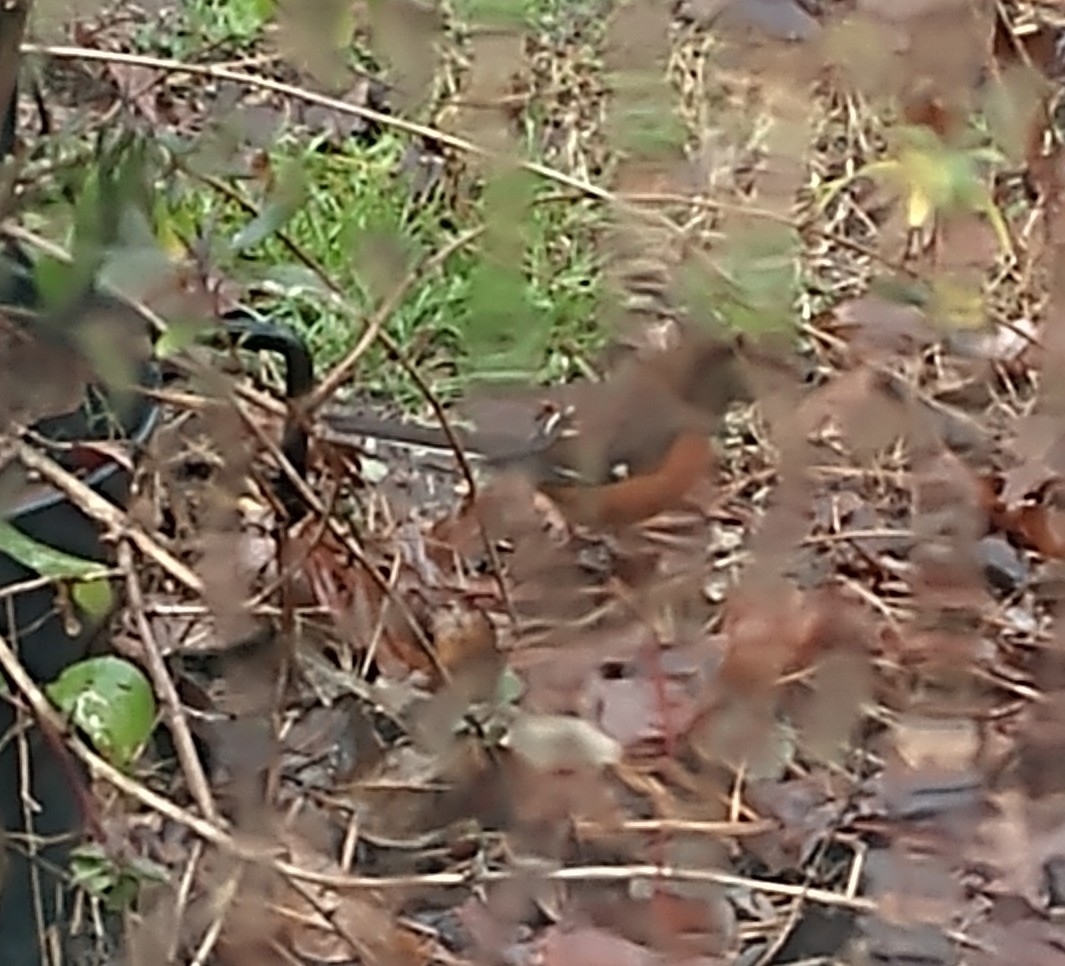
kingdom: Animalia
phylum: Chordata
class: Aves
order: Passeriformes
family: Passerellidae
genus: Pipilo
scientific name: Pipilo erythrophthalmus
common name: Eastern towhee
